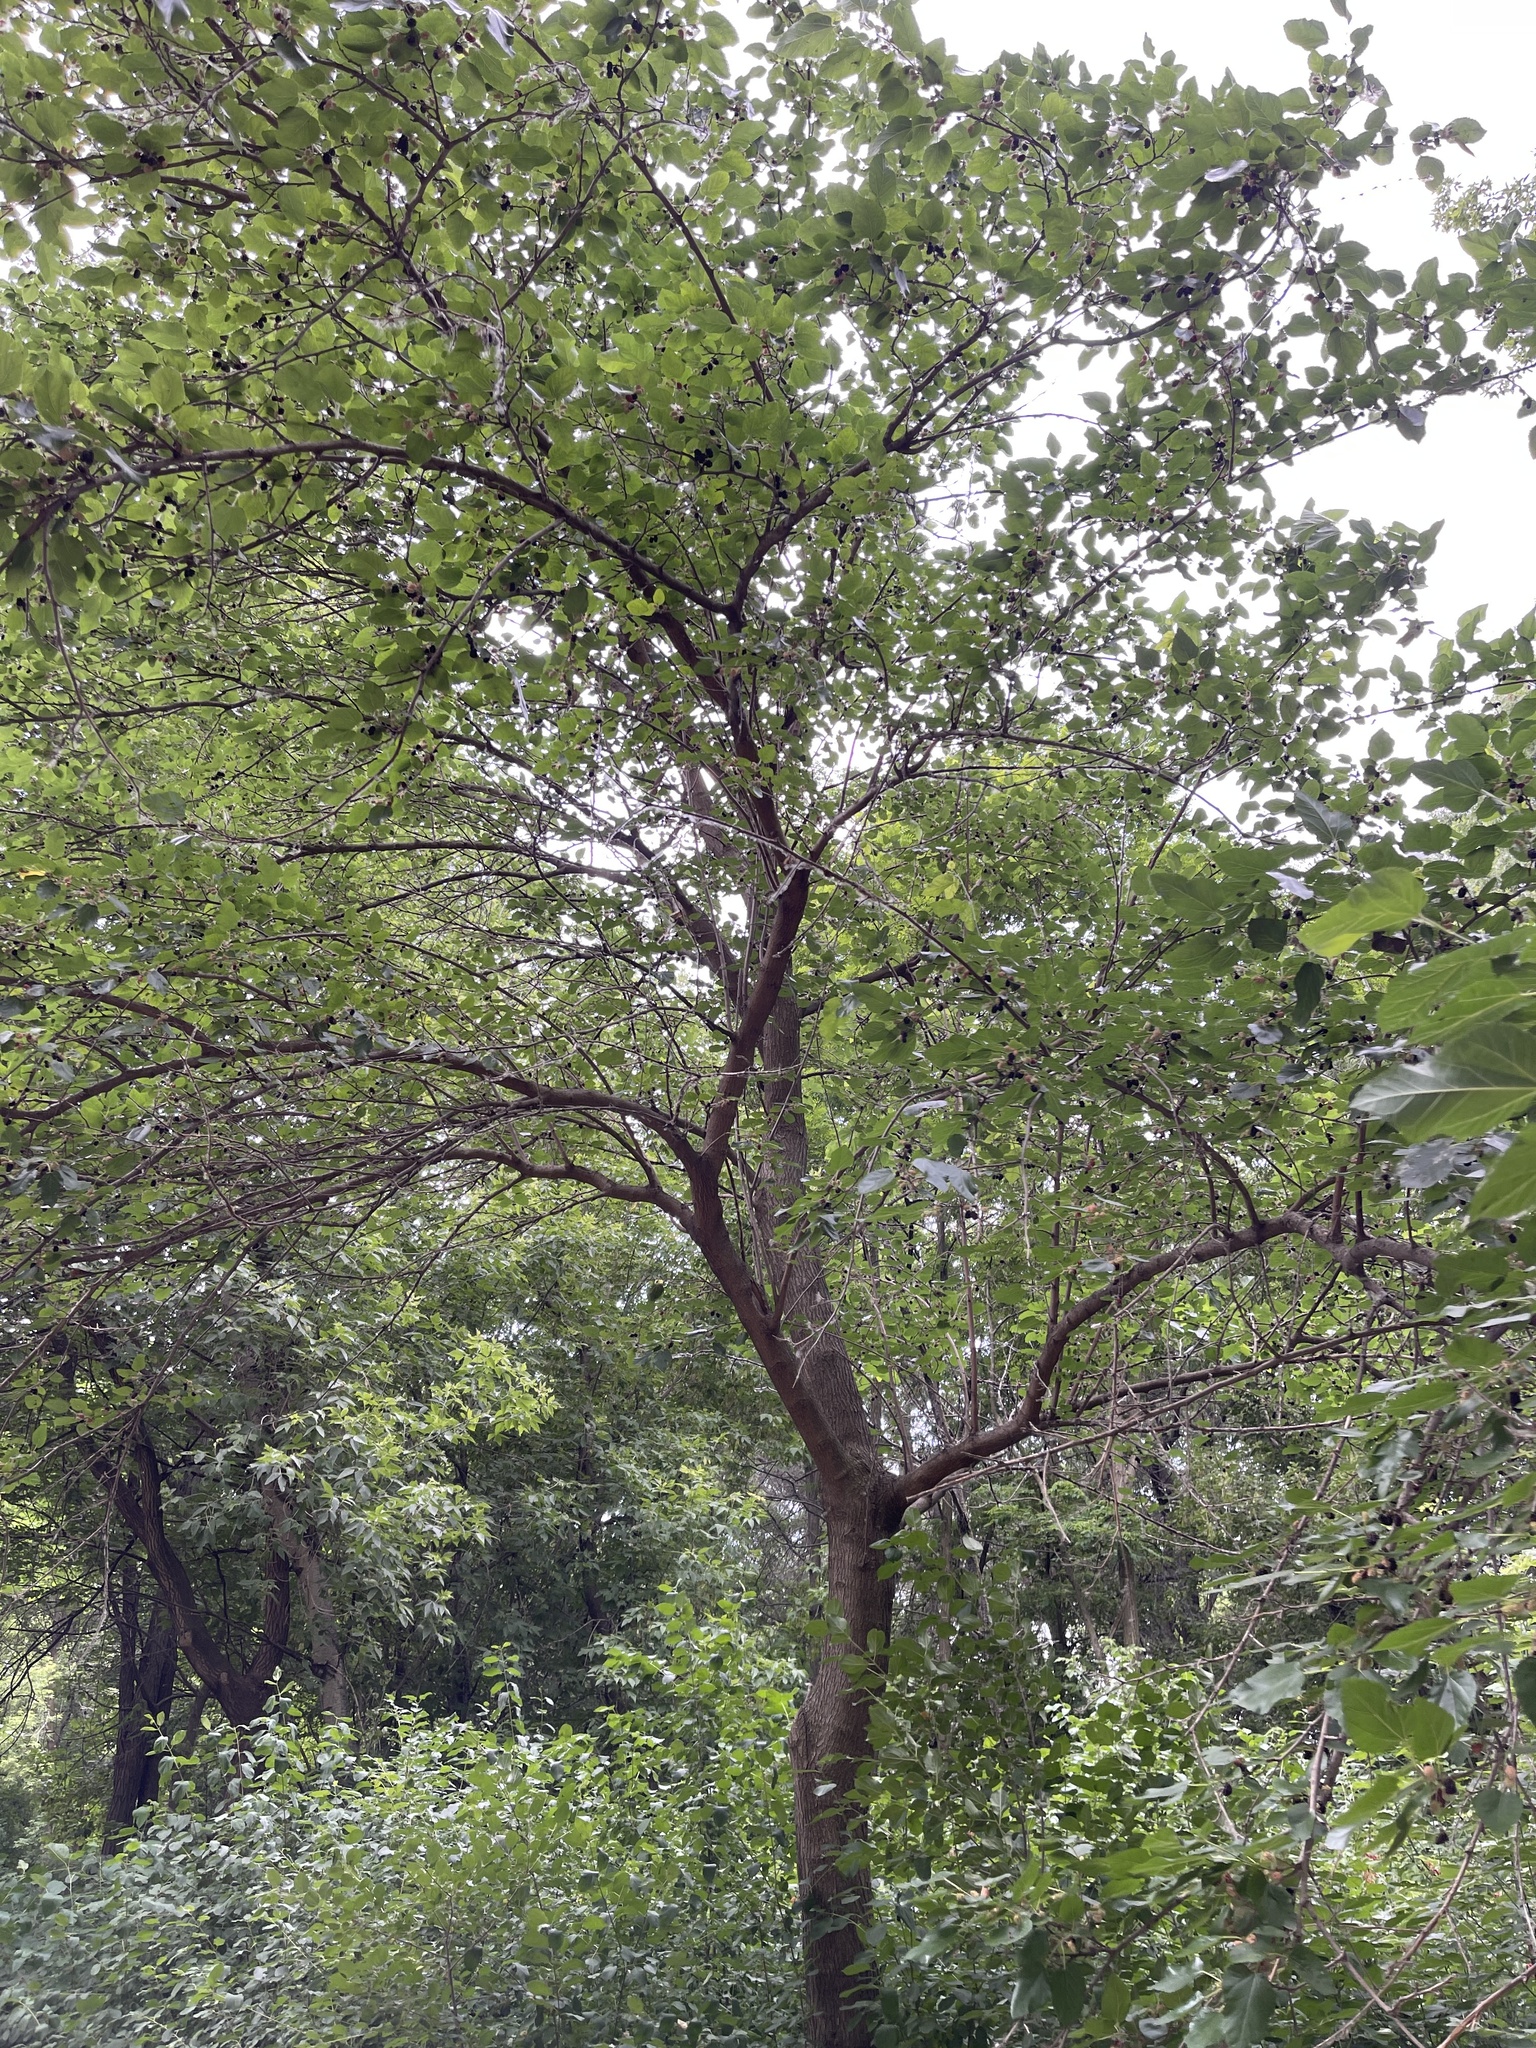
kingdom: Plantae
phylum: Tracheophyta
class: Magnoliopsida
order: Rosales
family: Moraceae
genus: Morus
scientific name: Morus alba
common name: White mulberry
